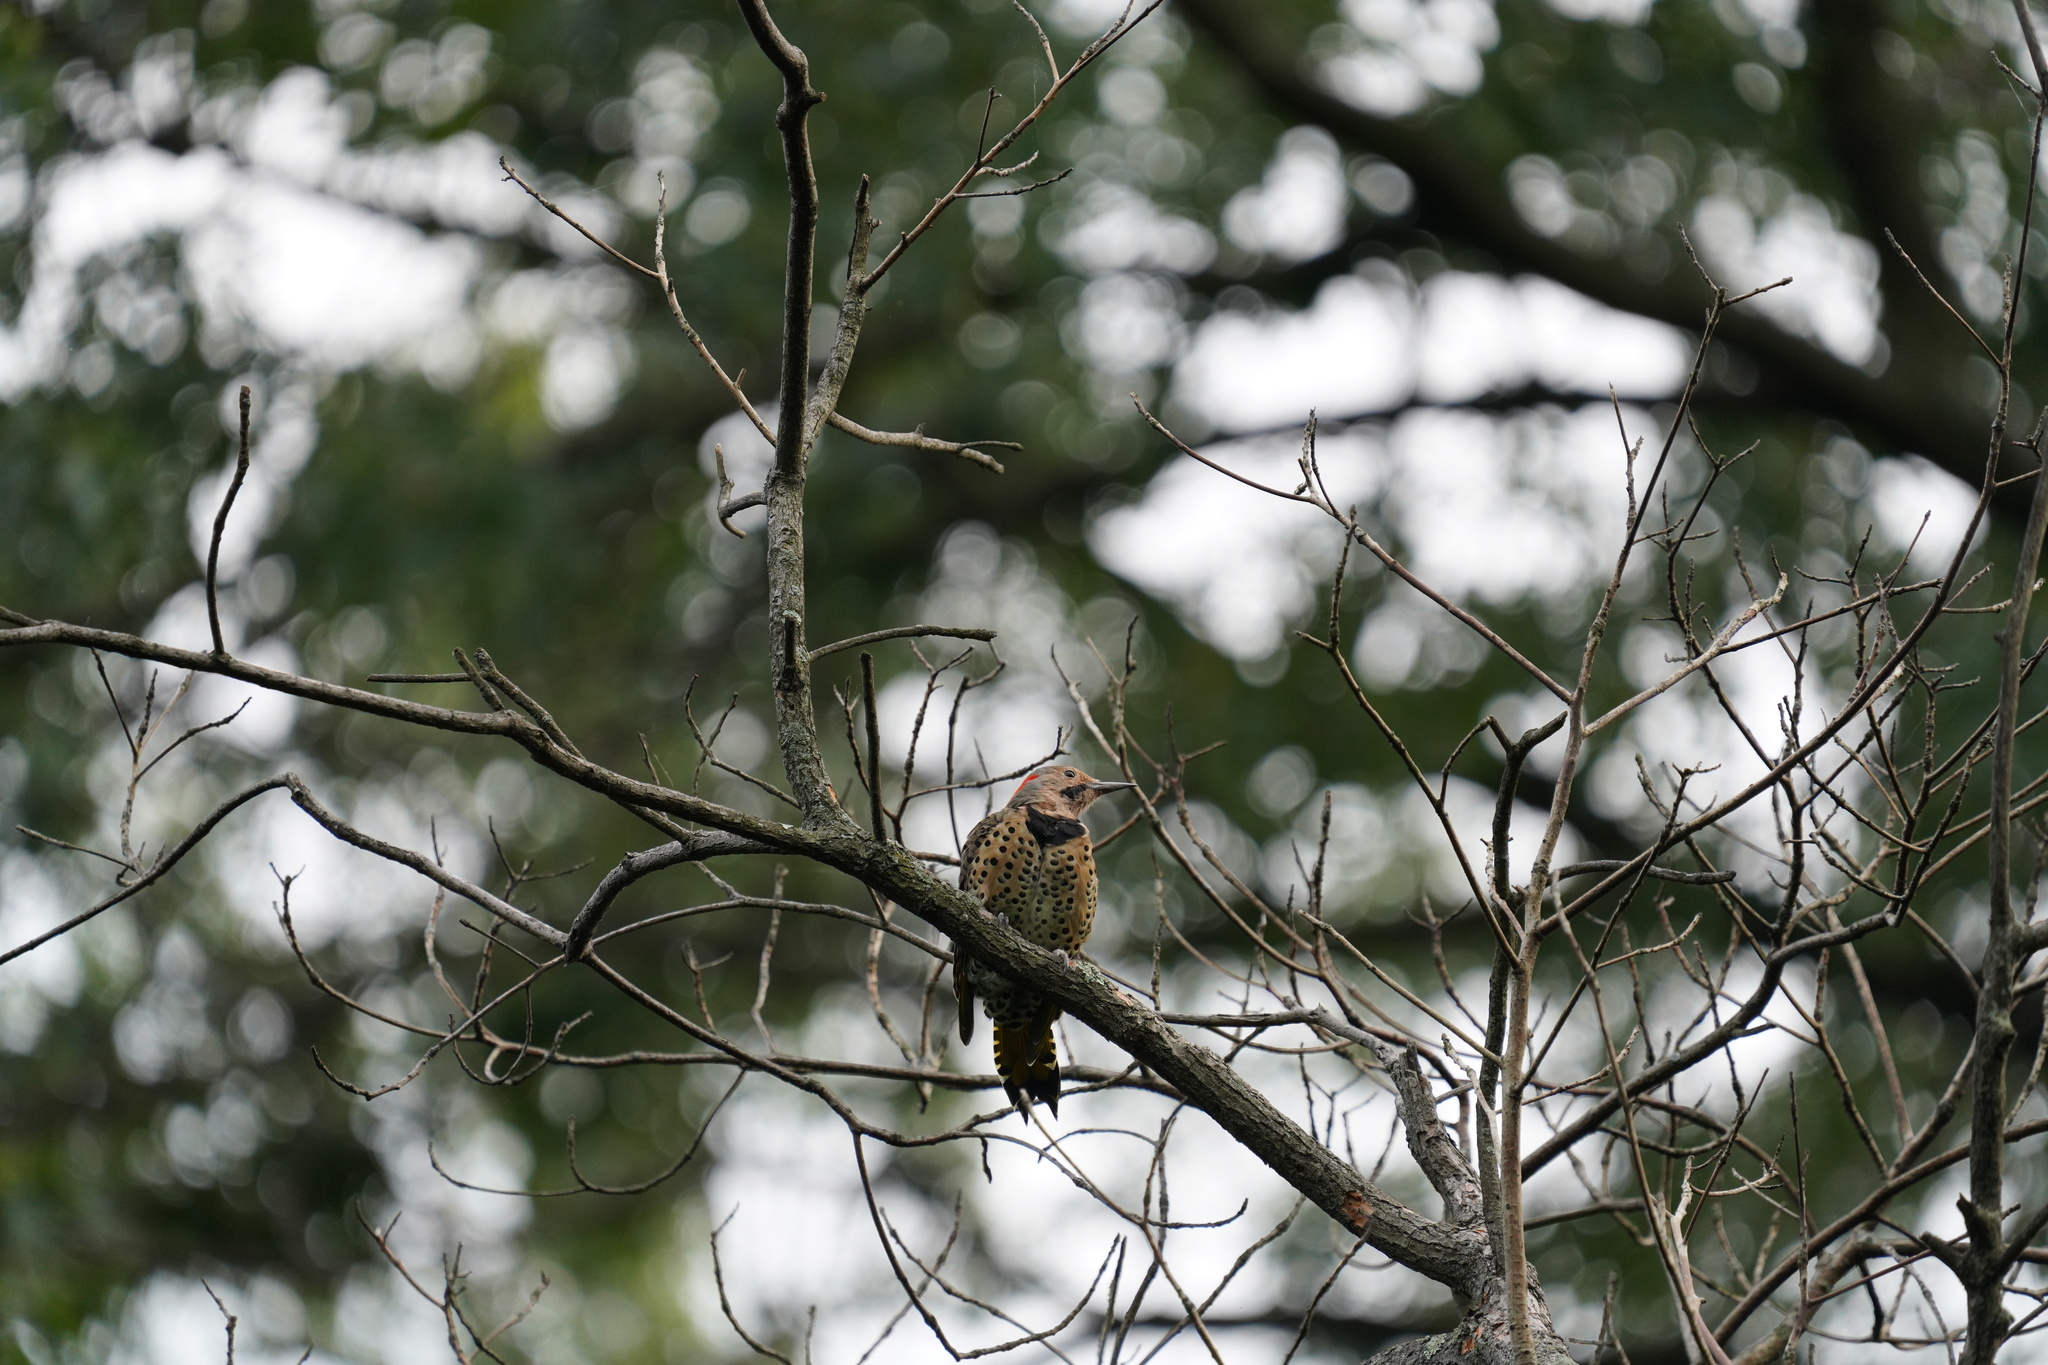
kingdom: Animalia
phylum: Chordata
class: Aves
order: Piciformes
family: Picidae
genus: Colaptes
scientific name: Colaptes auratus
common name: Northern flicker
